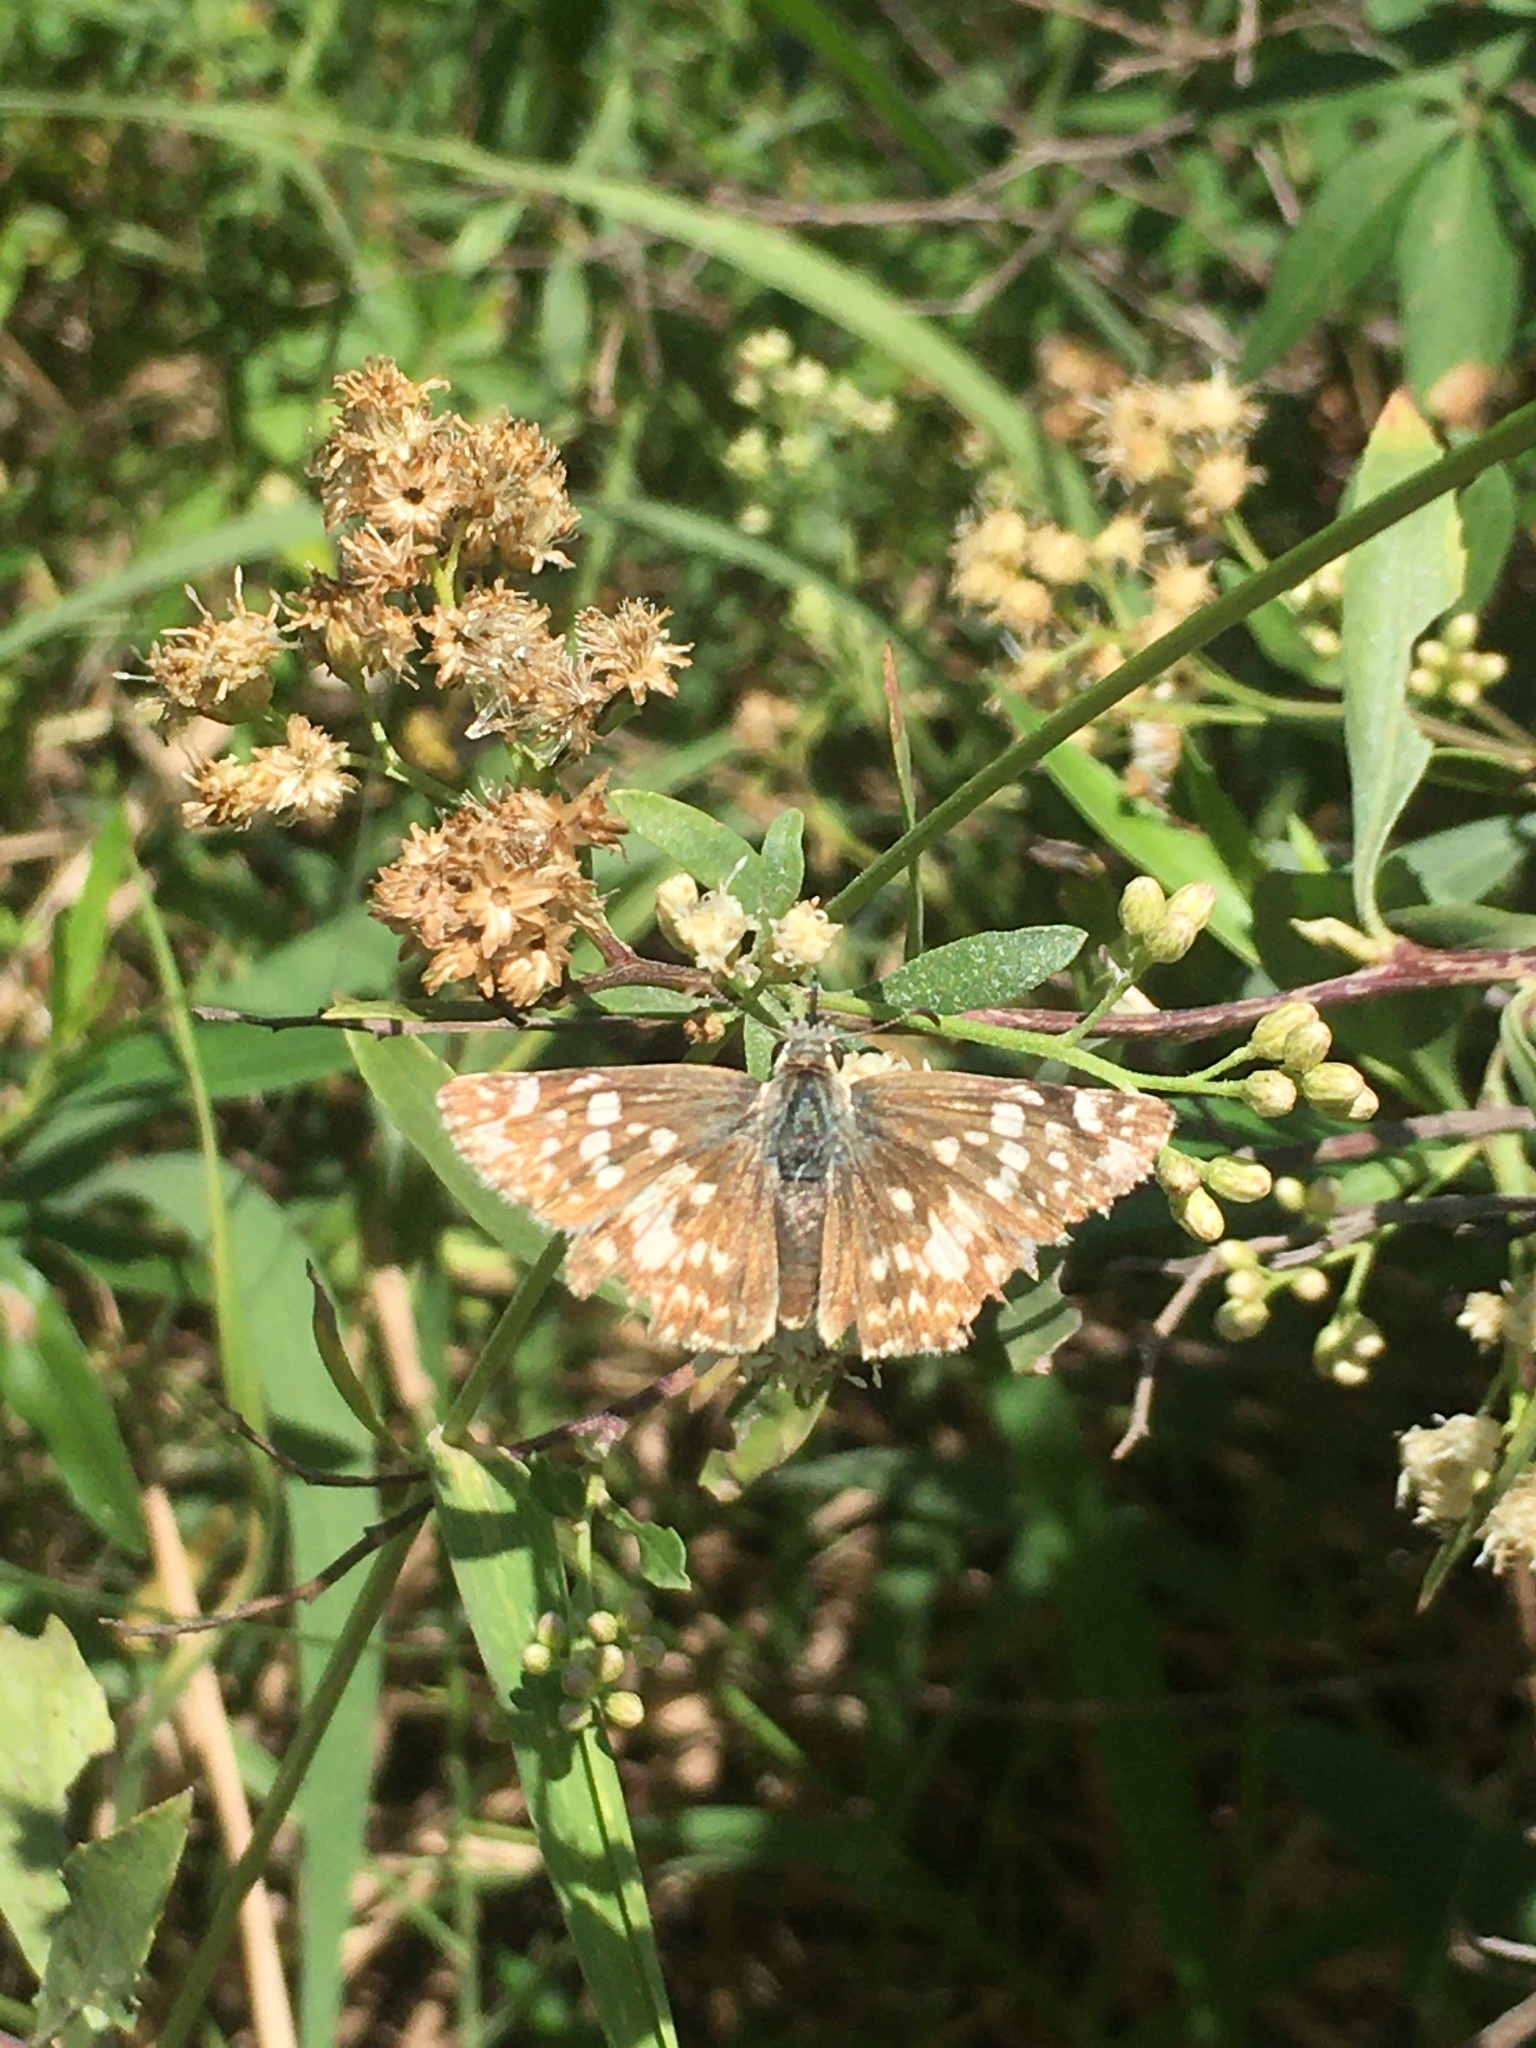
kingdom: Animalia
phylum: Arthropoda
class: Insecta
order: Lepidoptera
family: Hesperiidae
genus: Heliopetes
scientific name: Heliopetes americanus
